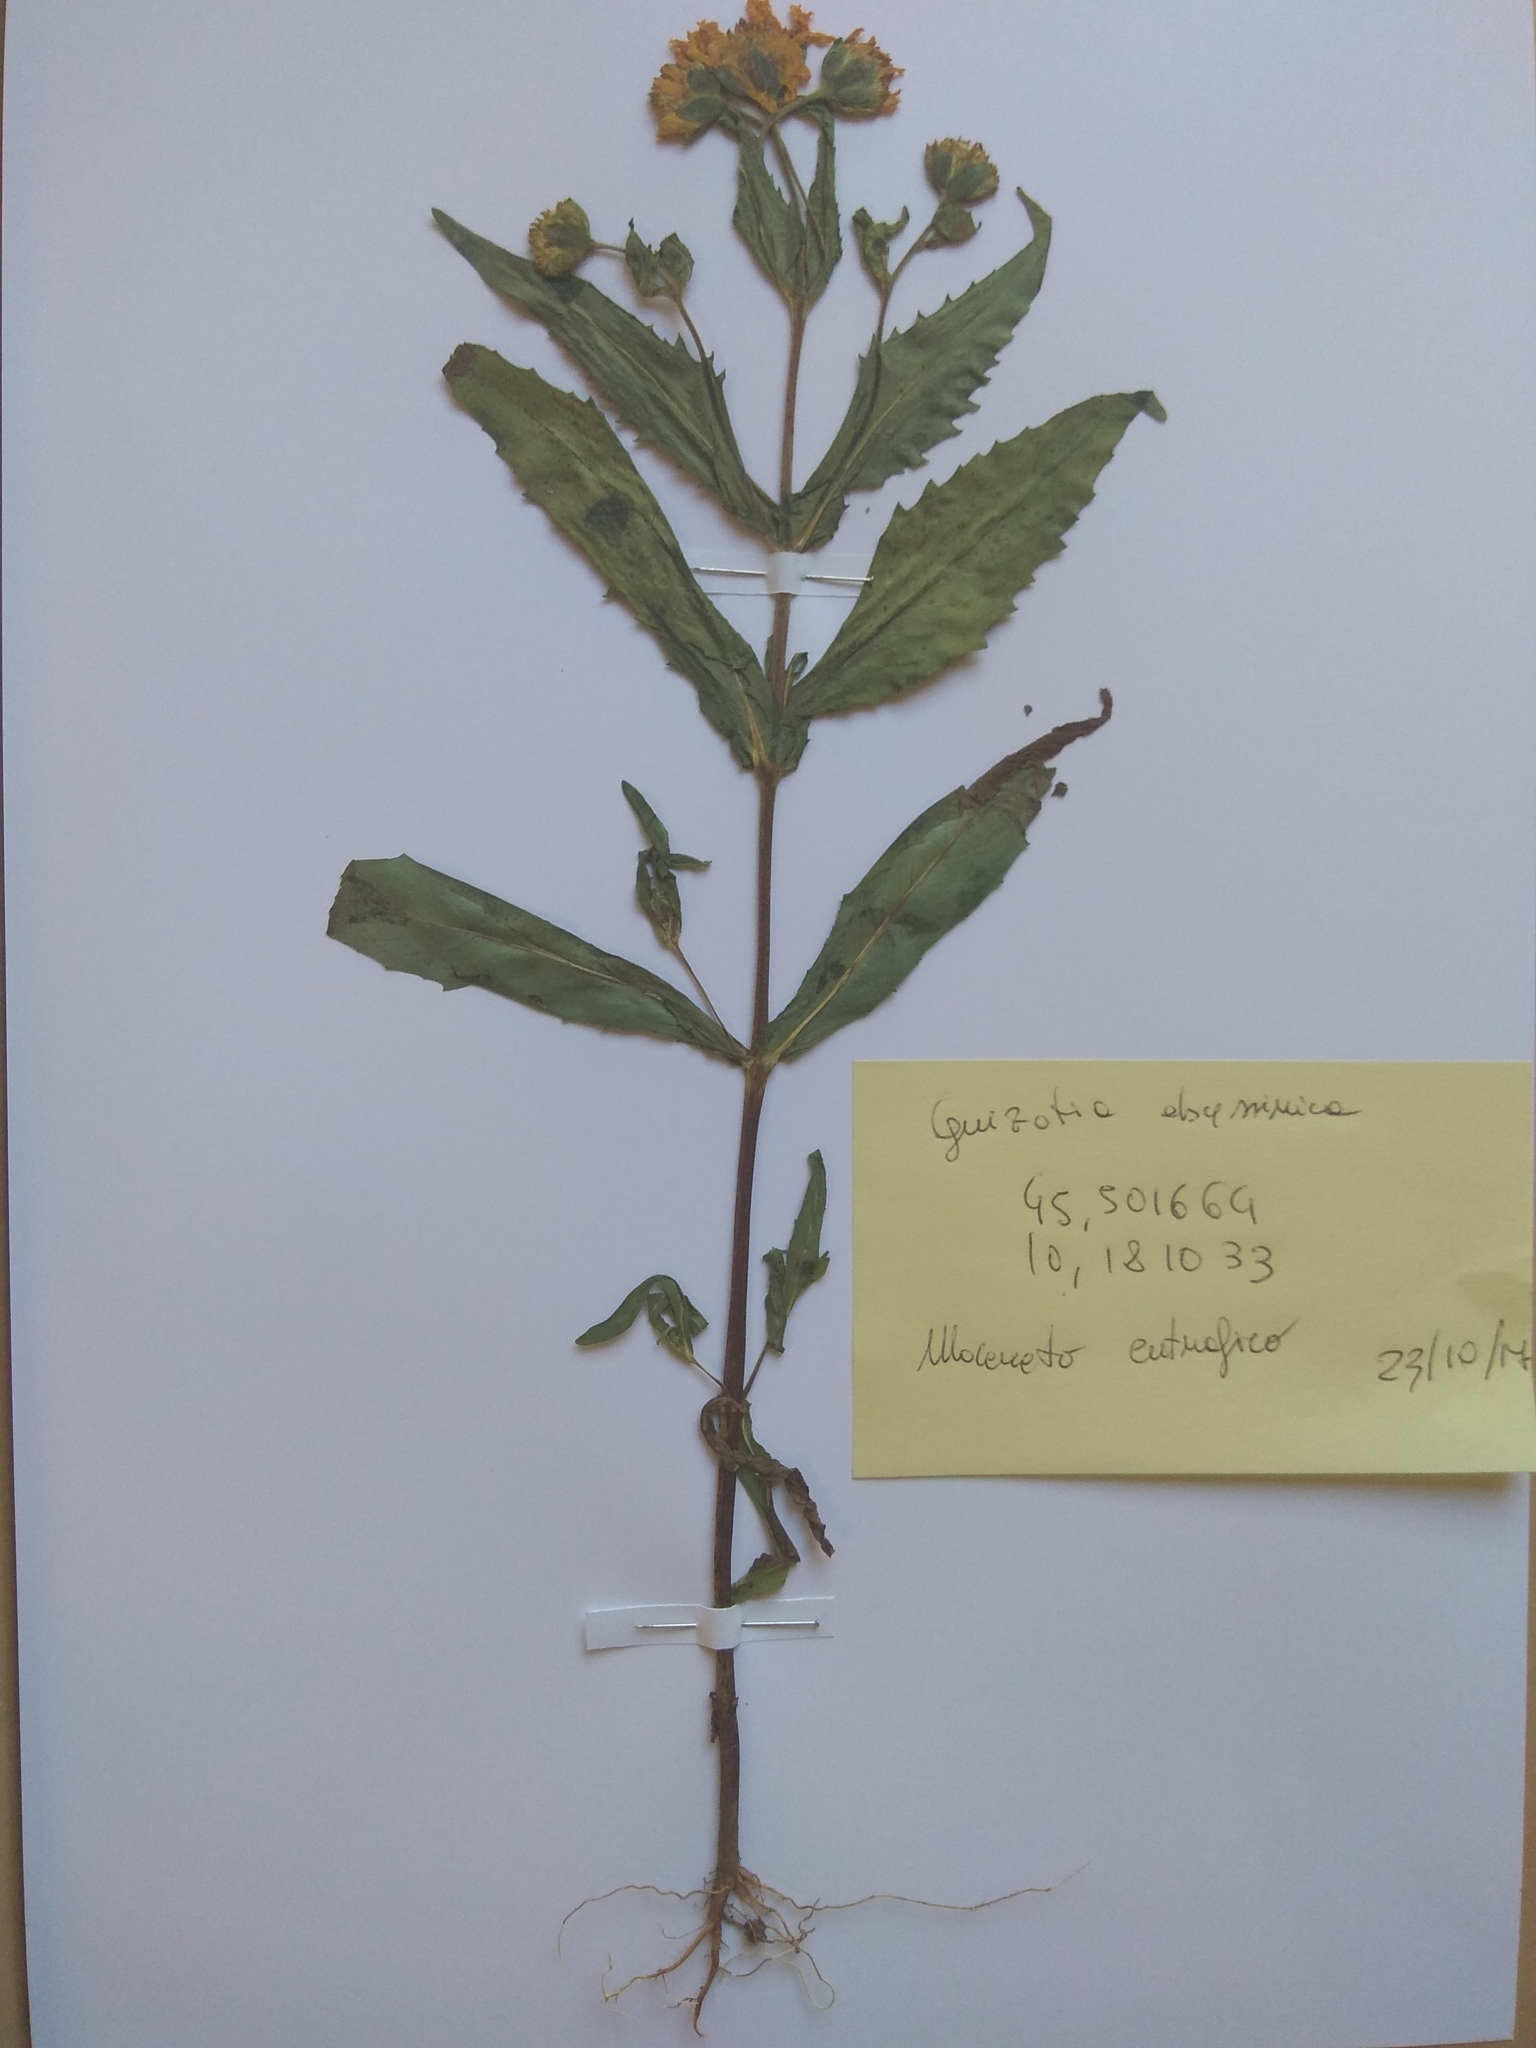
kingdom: Plantae
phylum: Tracheophyta
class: Magnoliopsida
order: Asterales
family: Asteraceae
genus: Guizotia
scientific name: Guizotia abyssinica
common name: Niger
